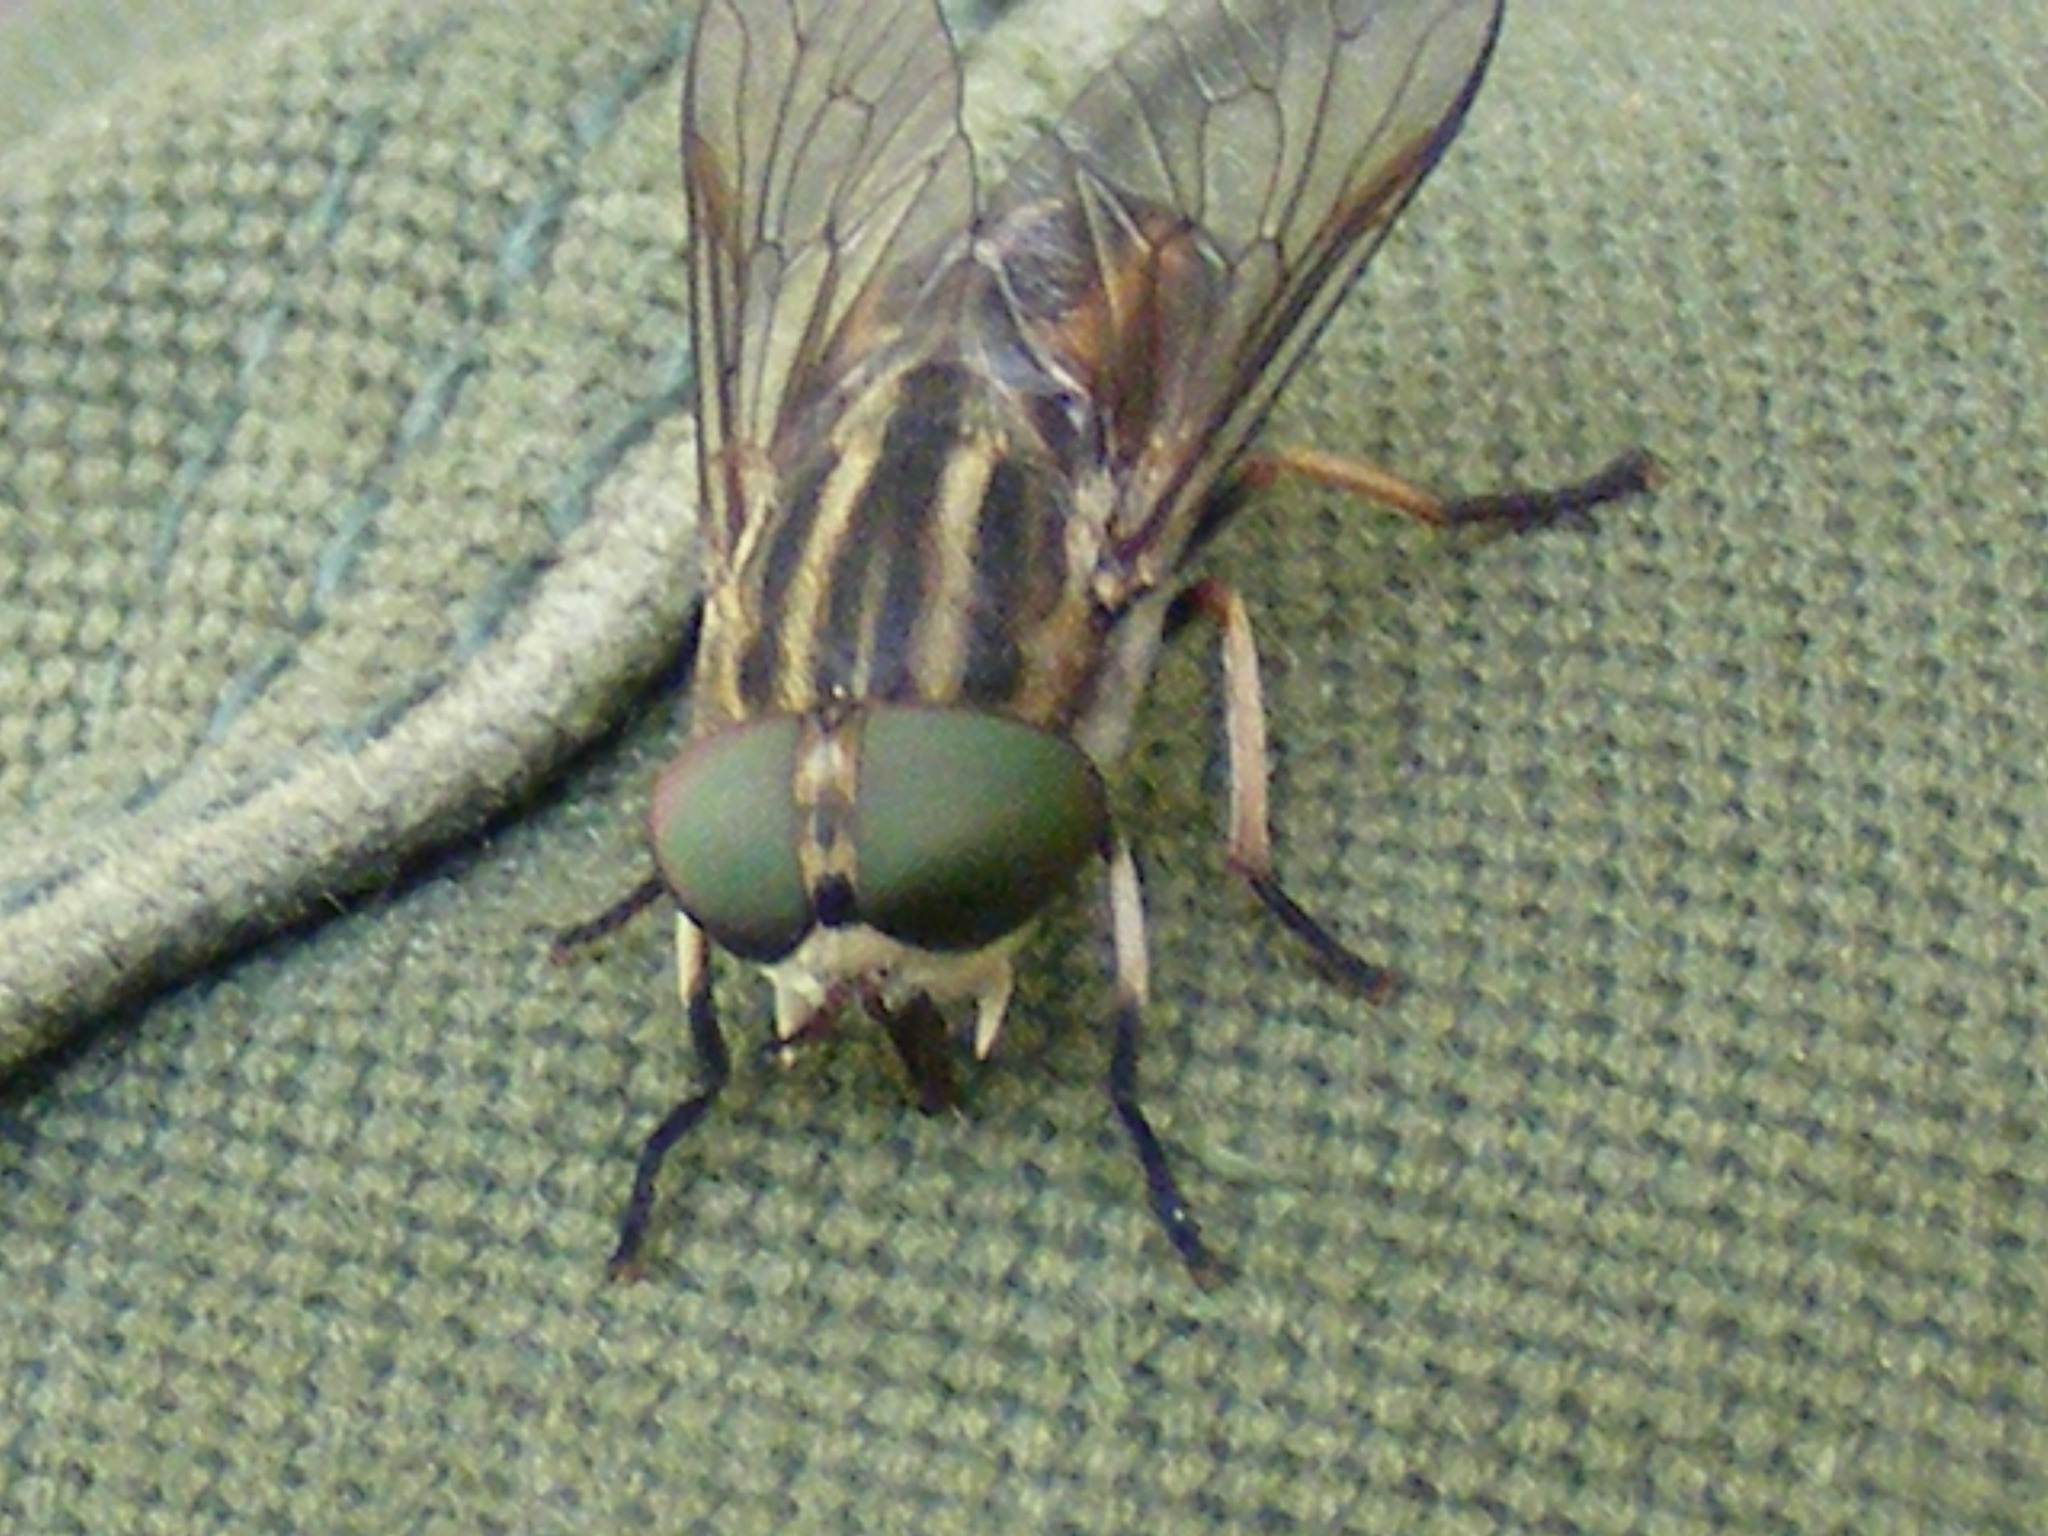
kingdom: Animalia
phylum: Arthropoda
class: Insecta
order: Diptera
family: Tabanidae
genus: Tabanus
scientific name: Tabanus taeniola
